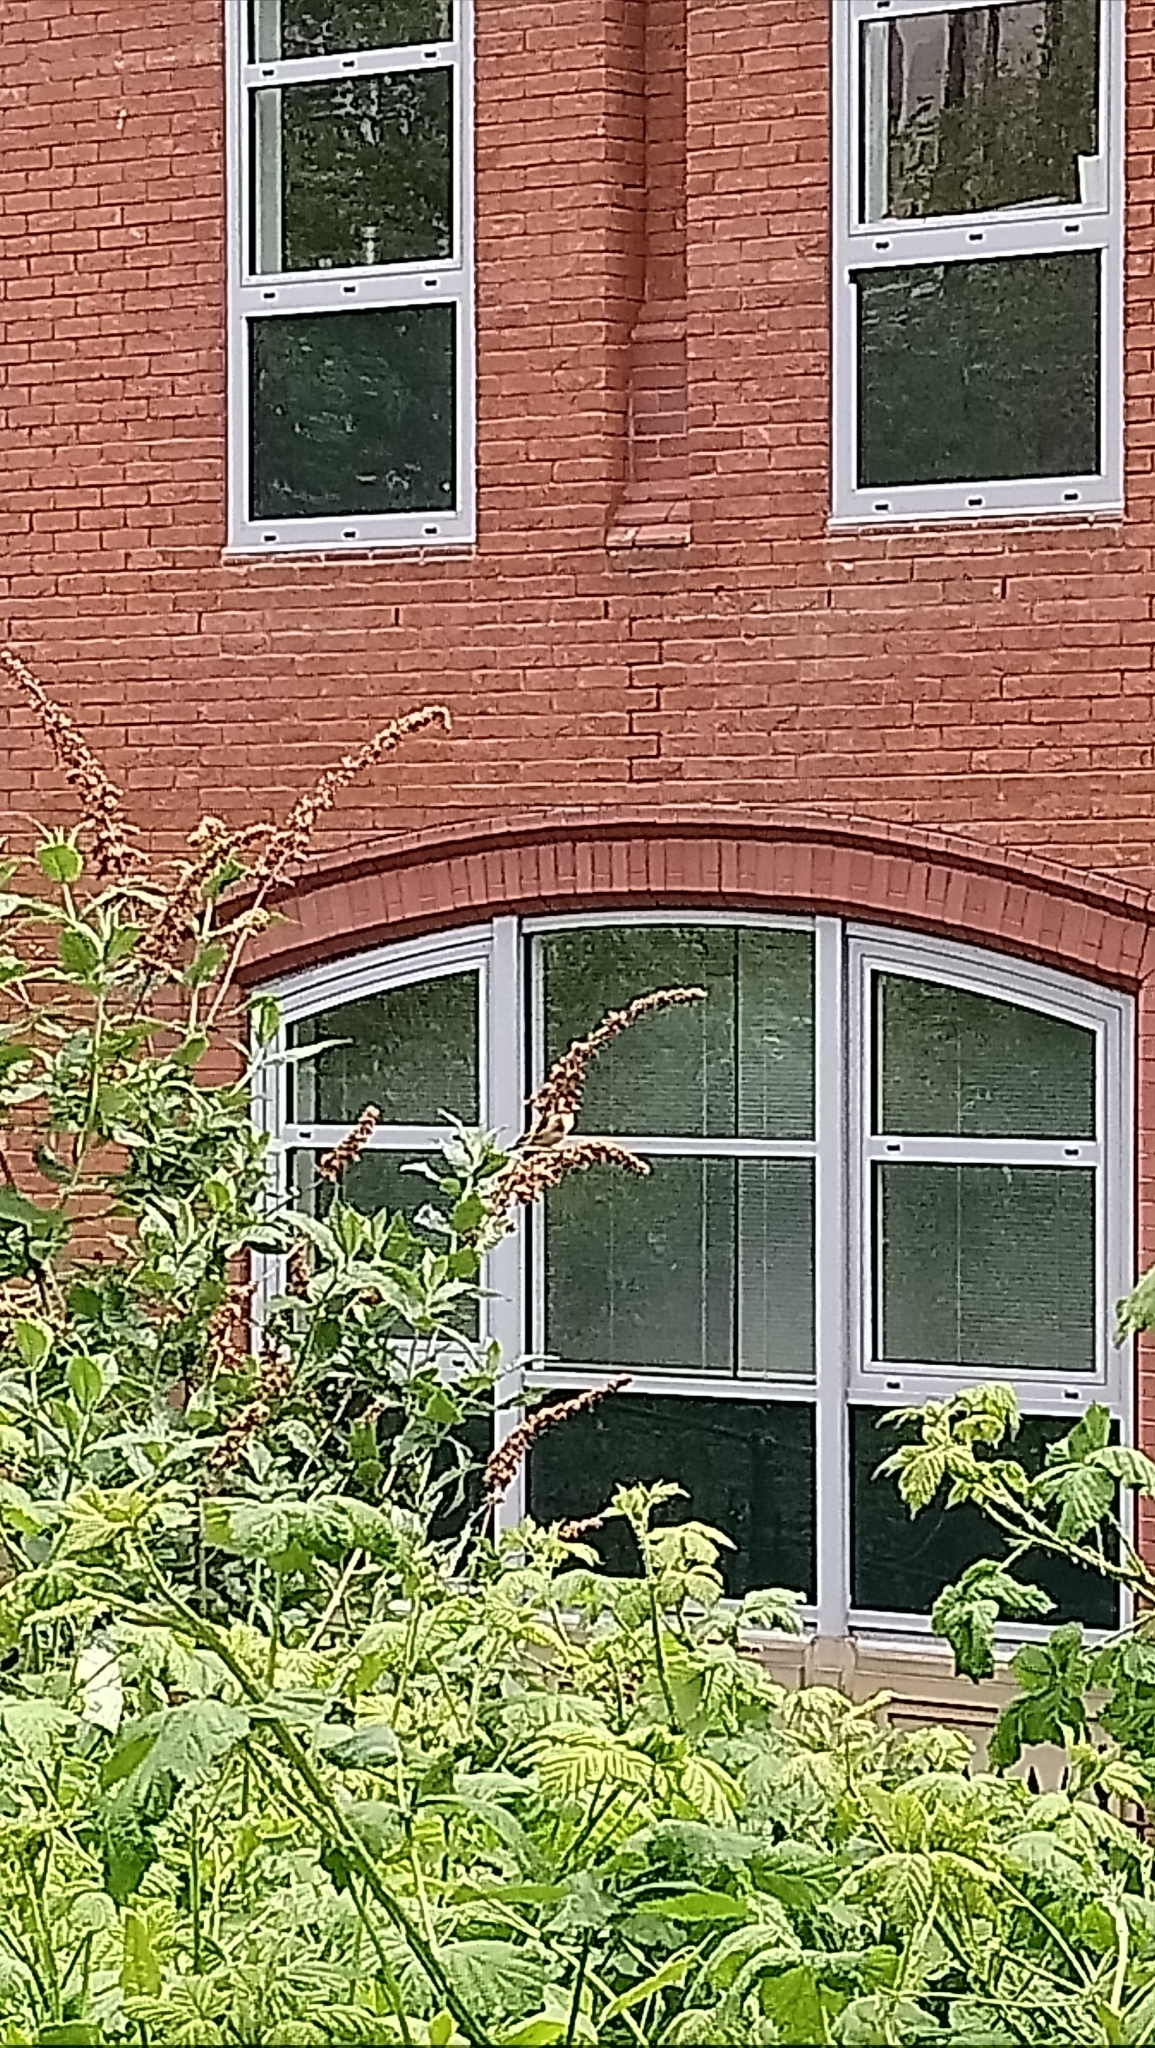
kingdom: Animalia
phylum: Chordata
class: Aves
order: Passeriformes
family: Fringillidae
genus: Carduelis
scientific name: Carduelis carduelis
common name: European goldfinch
